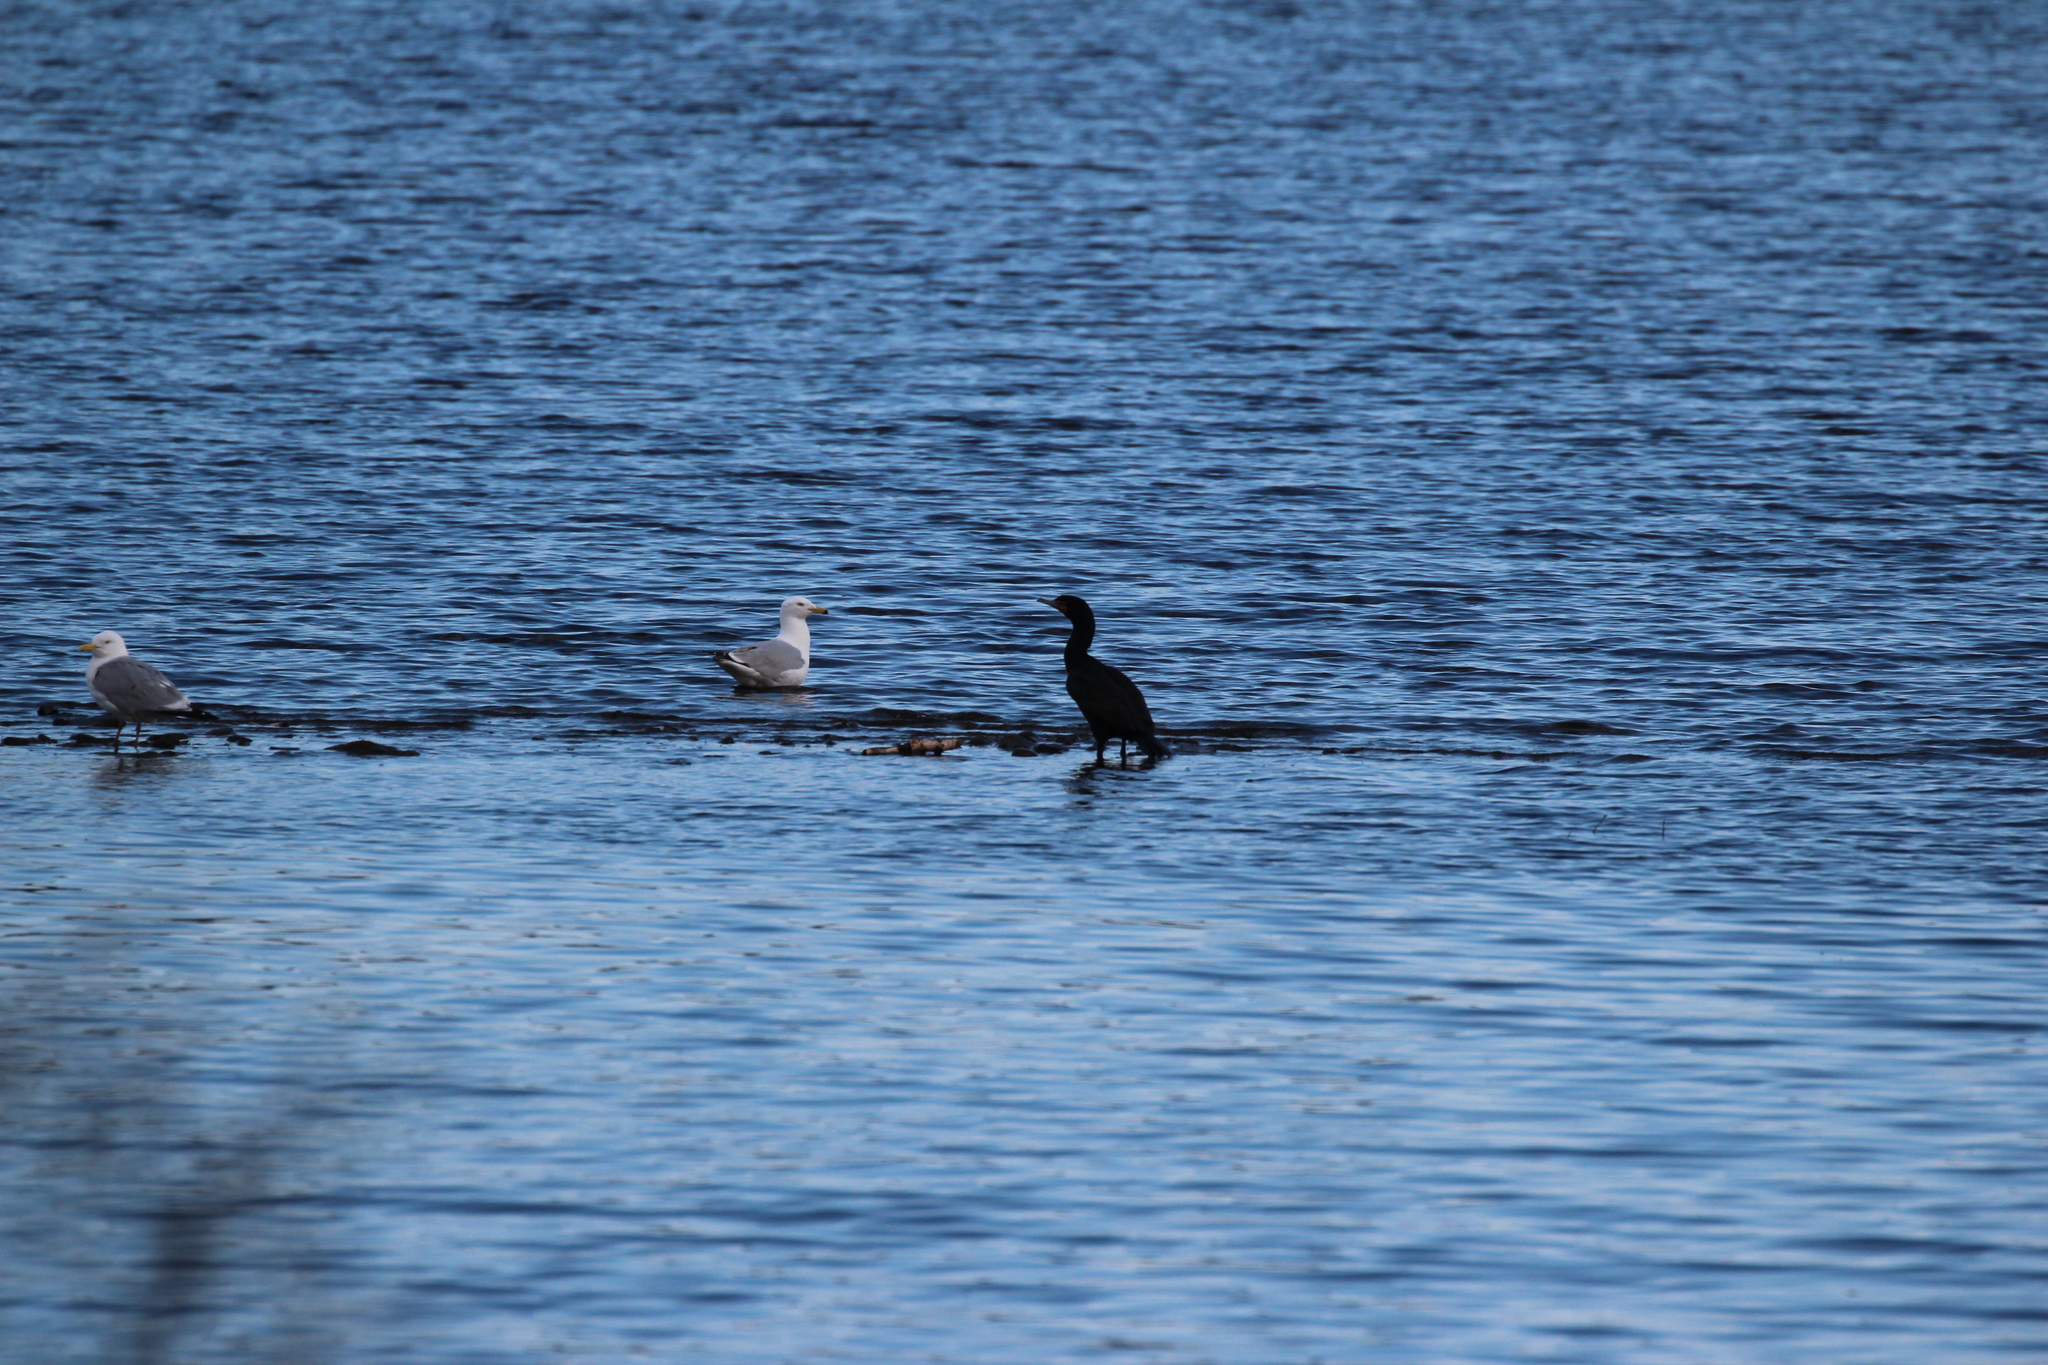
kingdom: Animalia
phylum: Chordata
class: Aves
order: Suliformes
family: Phalacrocoracidae
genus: Phalacrocorax
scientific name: Phalacrocorax auritus
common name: Double-crested cormorant
